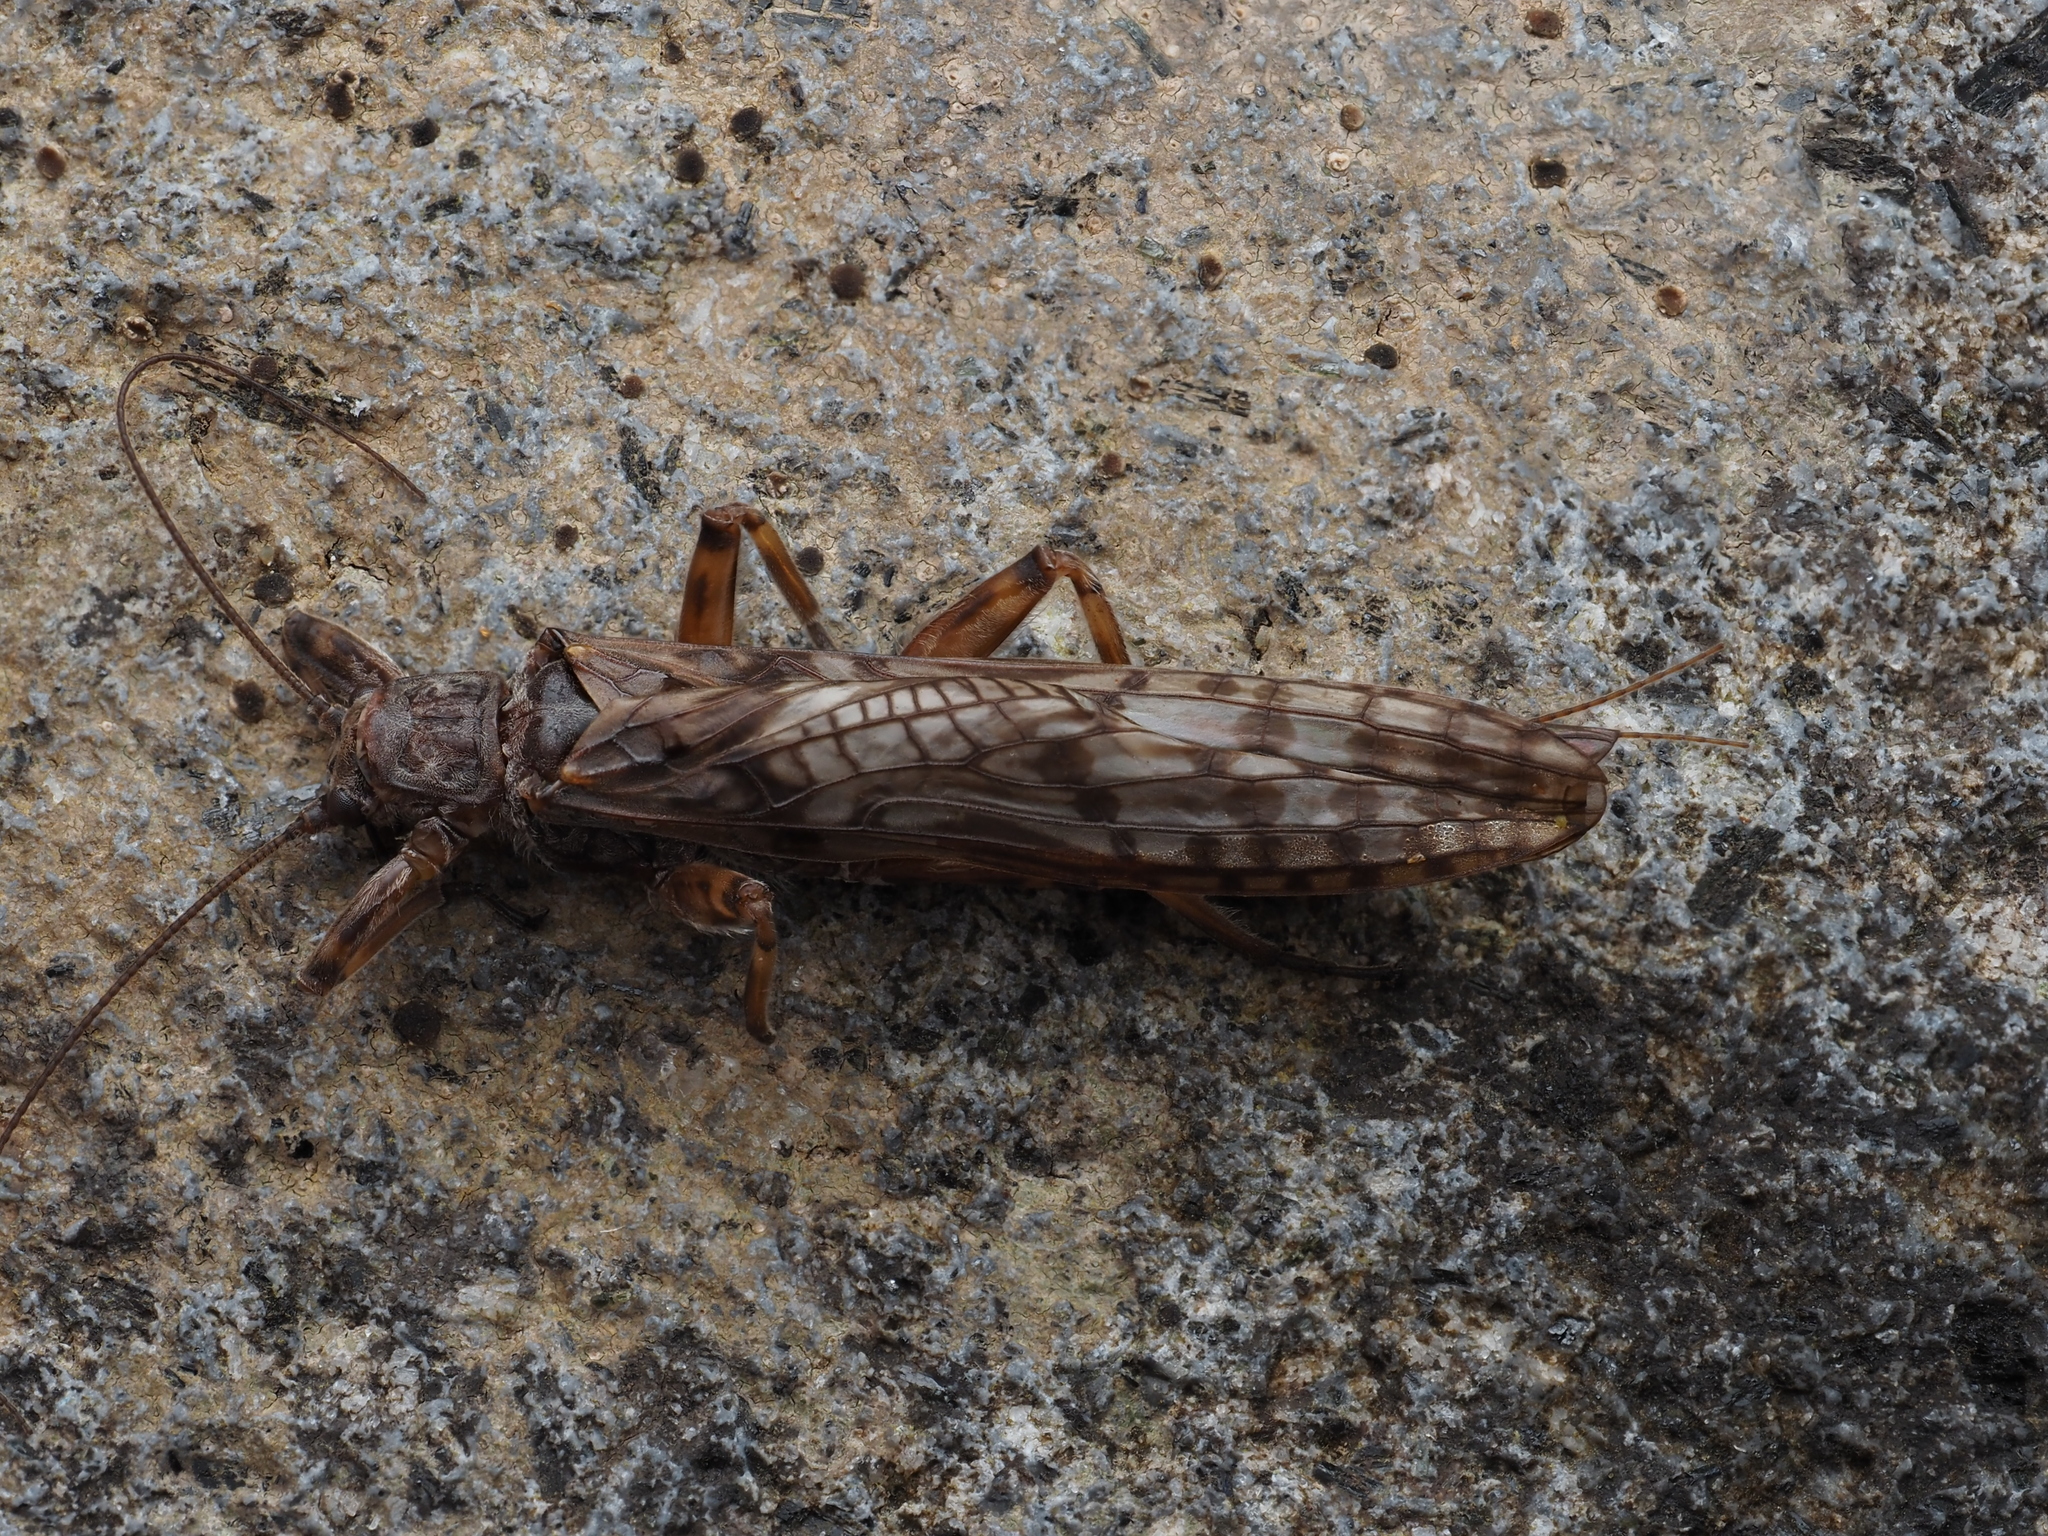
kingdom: Animalia
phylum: Arthropoda
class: Insecta
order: Plecoptera
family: Gripopterygidae
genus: Zelandoperla
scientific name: Zelandoperla agnetis
